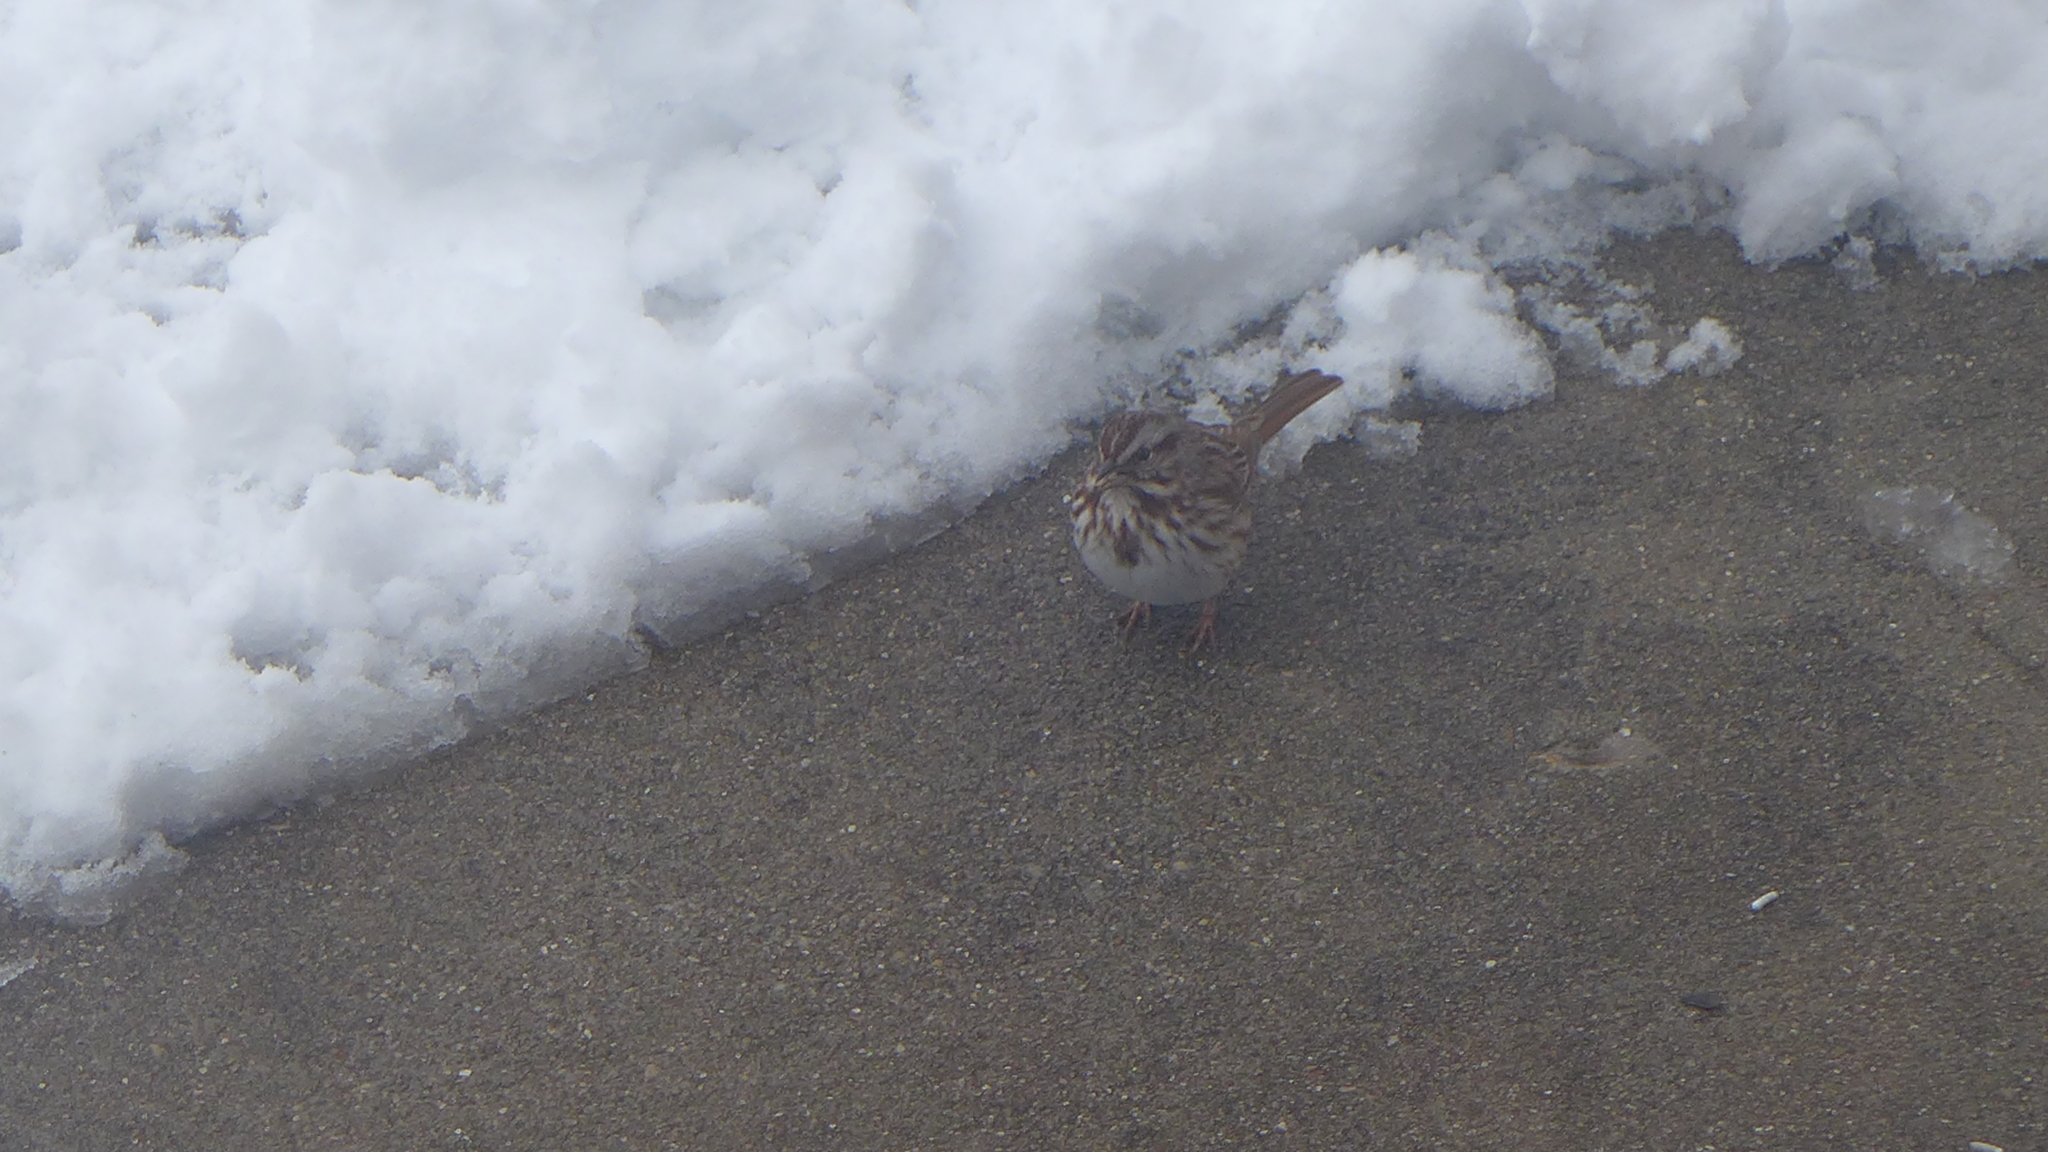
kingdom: Animalia
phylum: Chordata
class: Aves
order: Passeriformes
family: Passerellidae
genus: Melospiza
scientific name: Melospiza melodia
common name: Song sparrow
